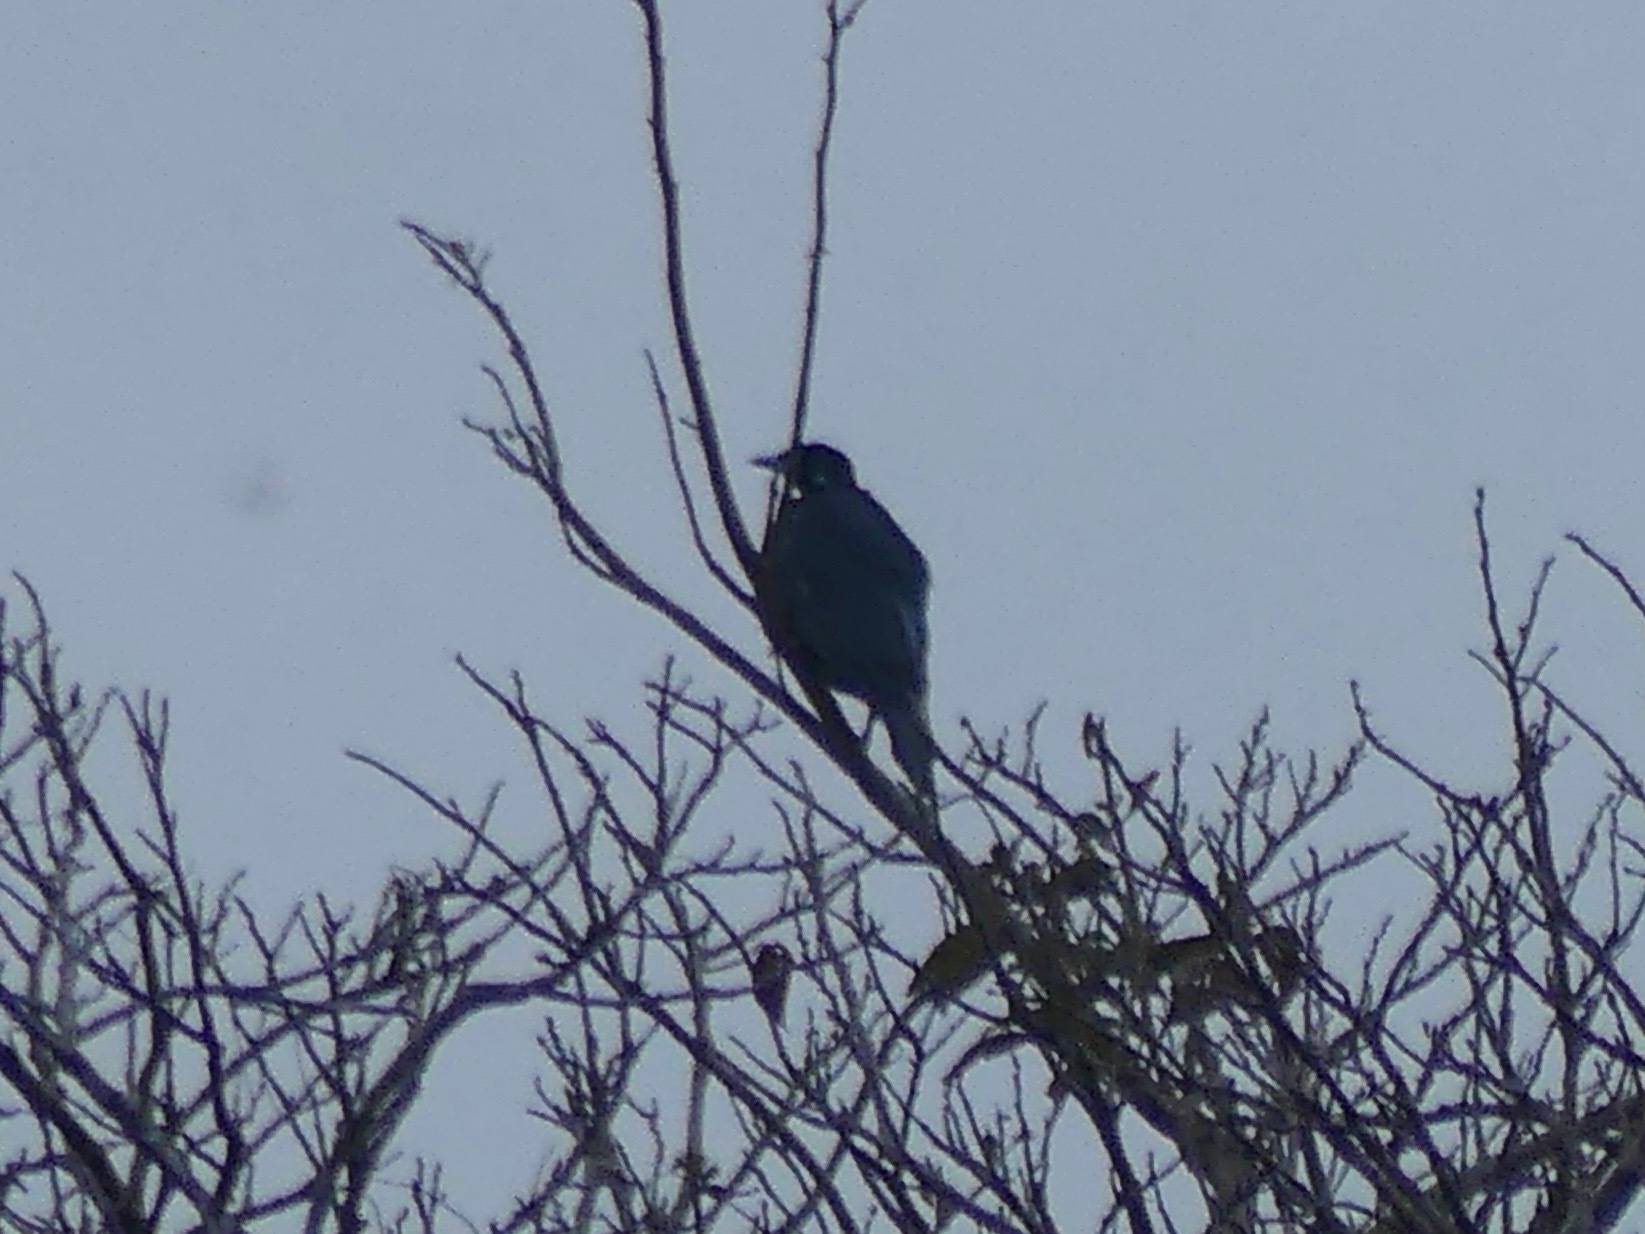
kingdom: Animalia
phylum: Chordata
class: Aves
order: Passeriformes
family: Cotingidae
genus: Gymnoderus
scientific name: Gymnoderus foetidus
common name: Bare-necked fruitcrow
